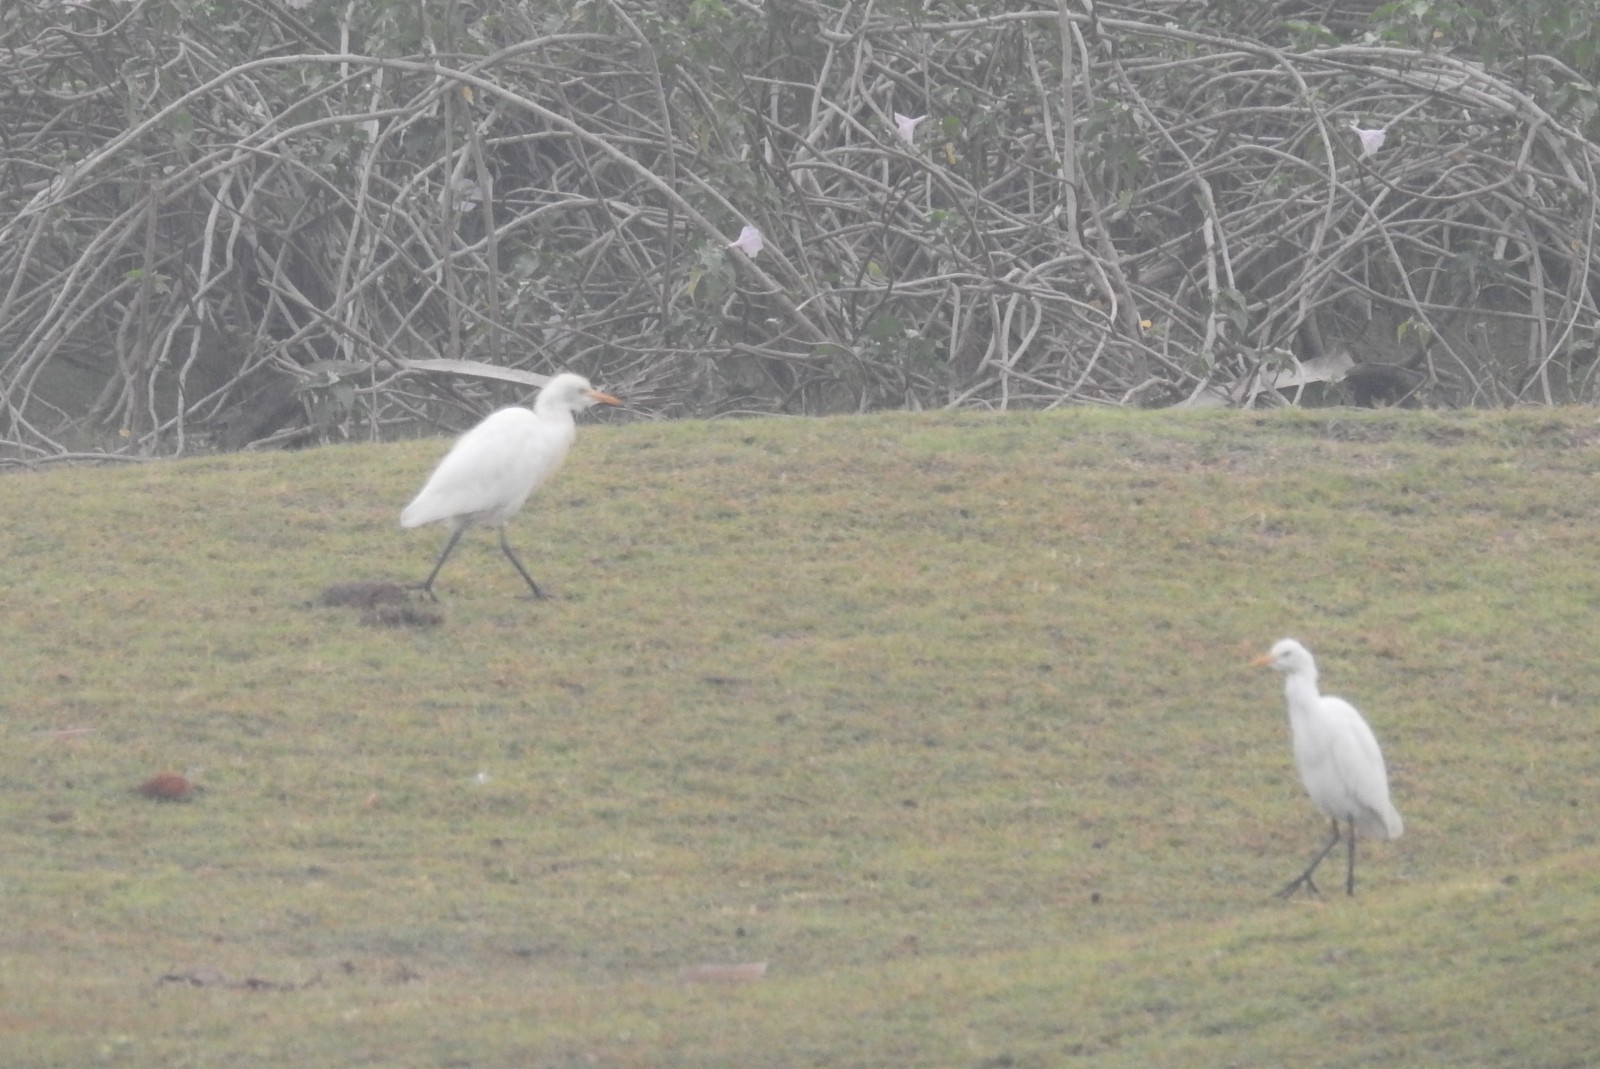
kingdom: Animalia
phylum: Chordata
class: Aves
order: Pelecaniformes
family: Ardeidae
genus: Bubulcus
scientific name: Bubulcus coromandus
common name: Eastern cattle egret
